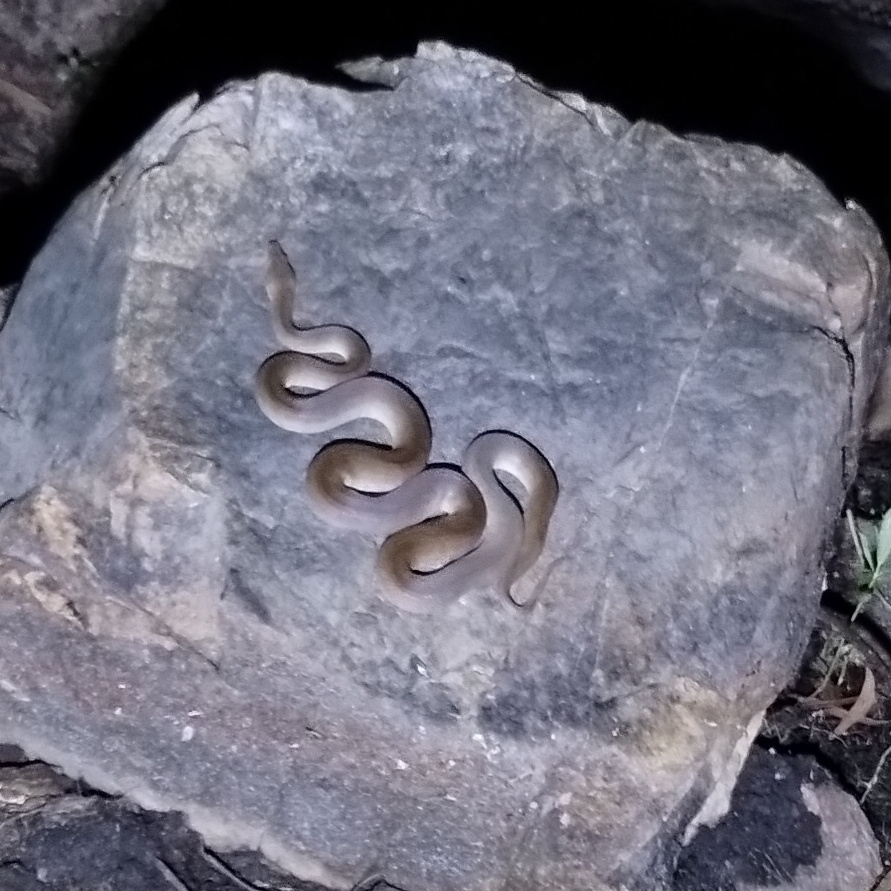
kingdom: Animalia
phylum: Chordata
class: Squamata
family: Pythonidae
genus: Liasis
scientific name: Liasis olivaceus
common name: Olive python
